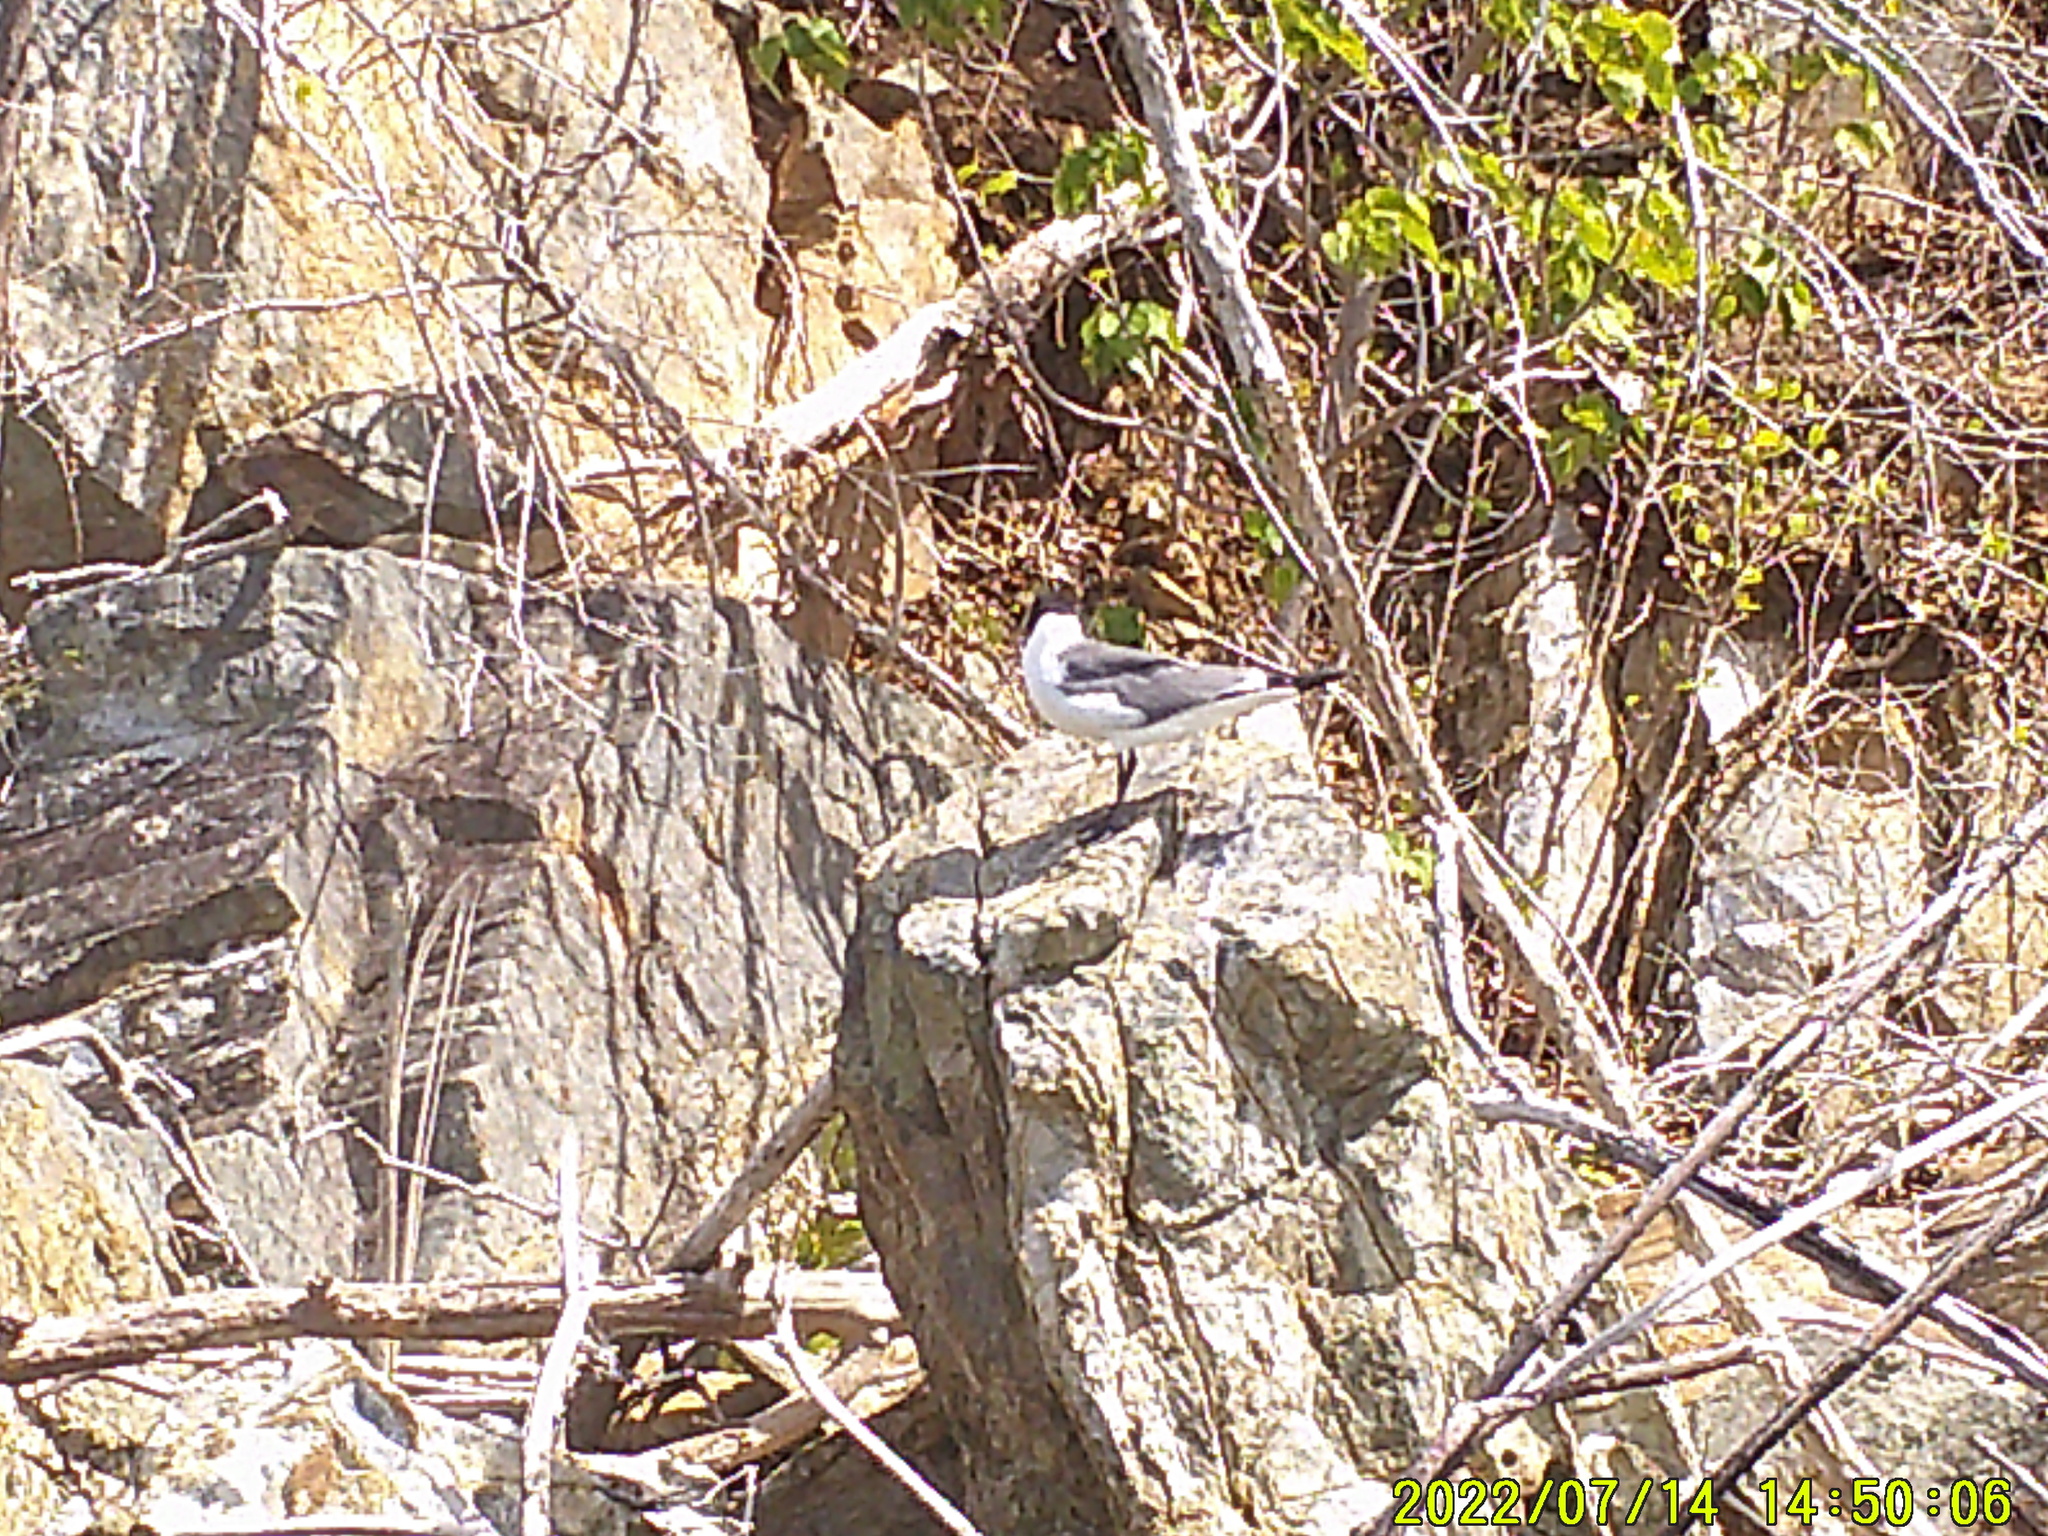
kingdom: Animalia
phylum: Chordata
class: Aves
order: Charadriiformes
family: Laridae
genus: Leucophaeus
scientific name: Leucophaeus atricilla
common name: Laughing gull
